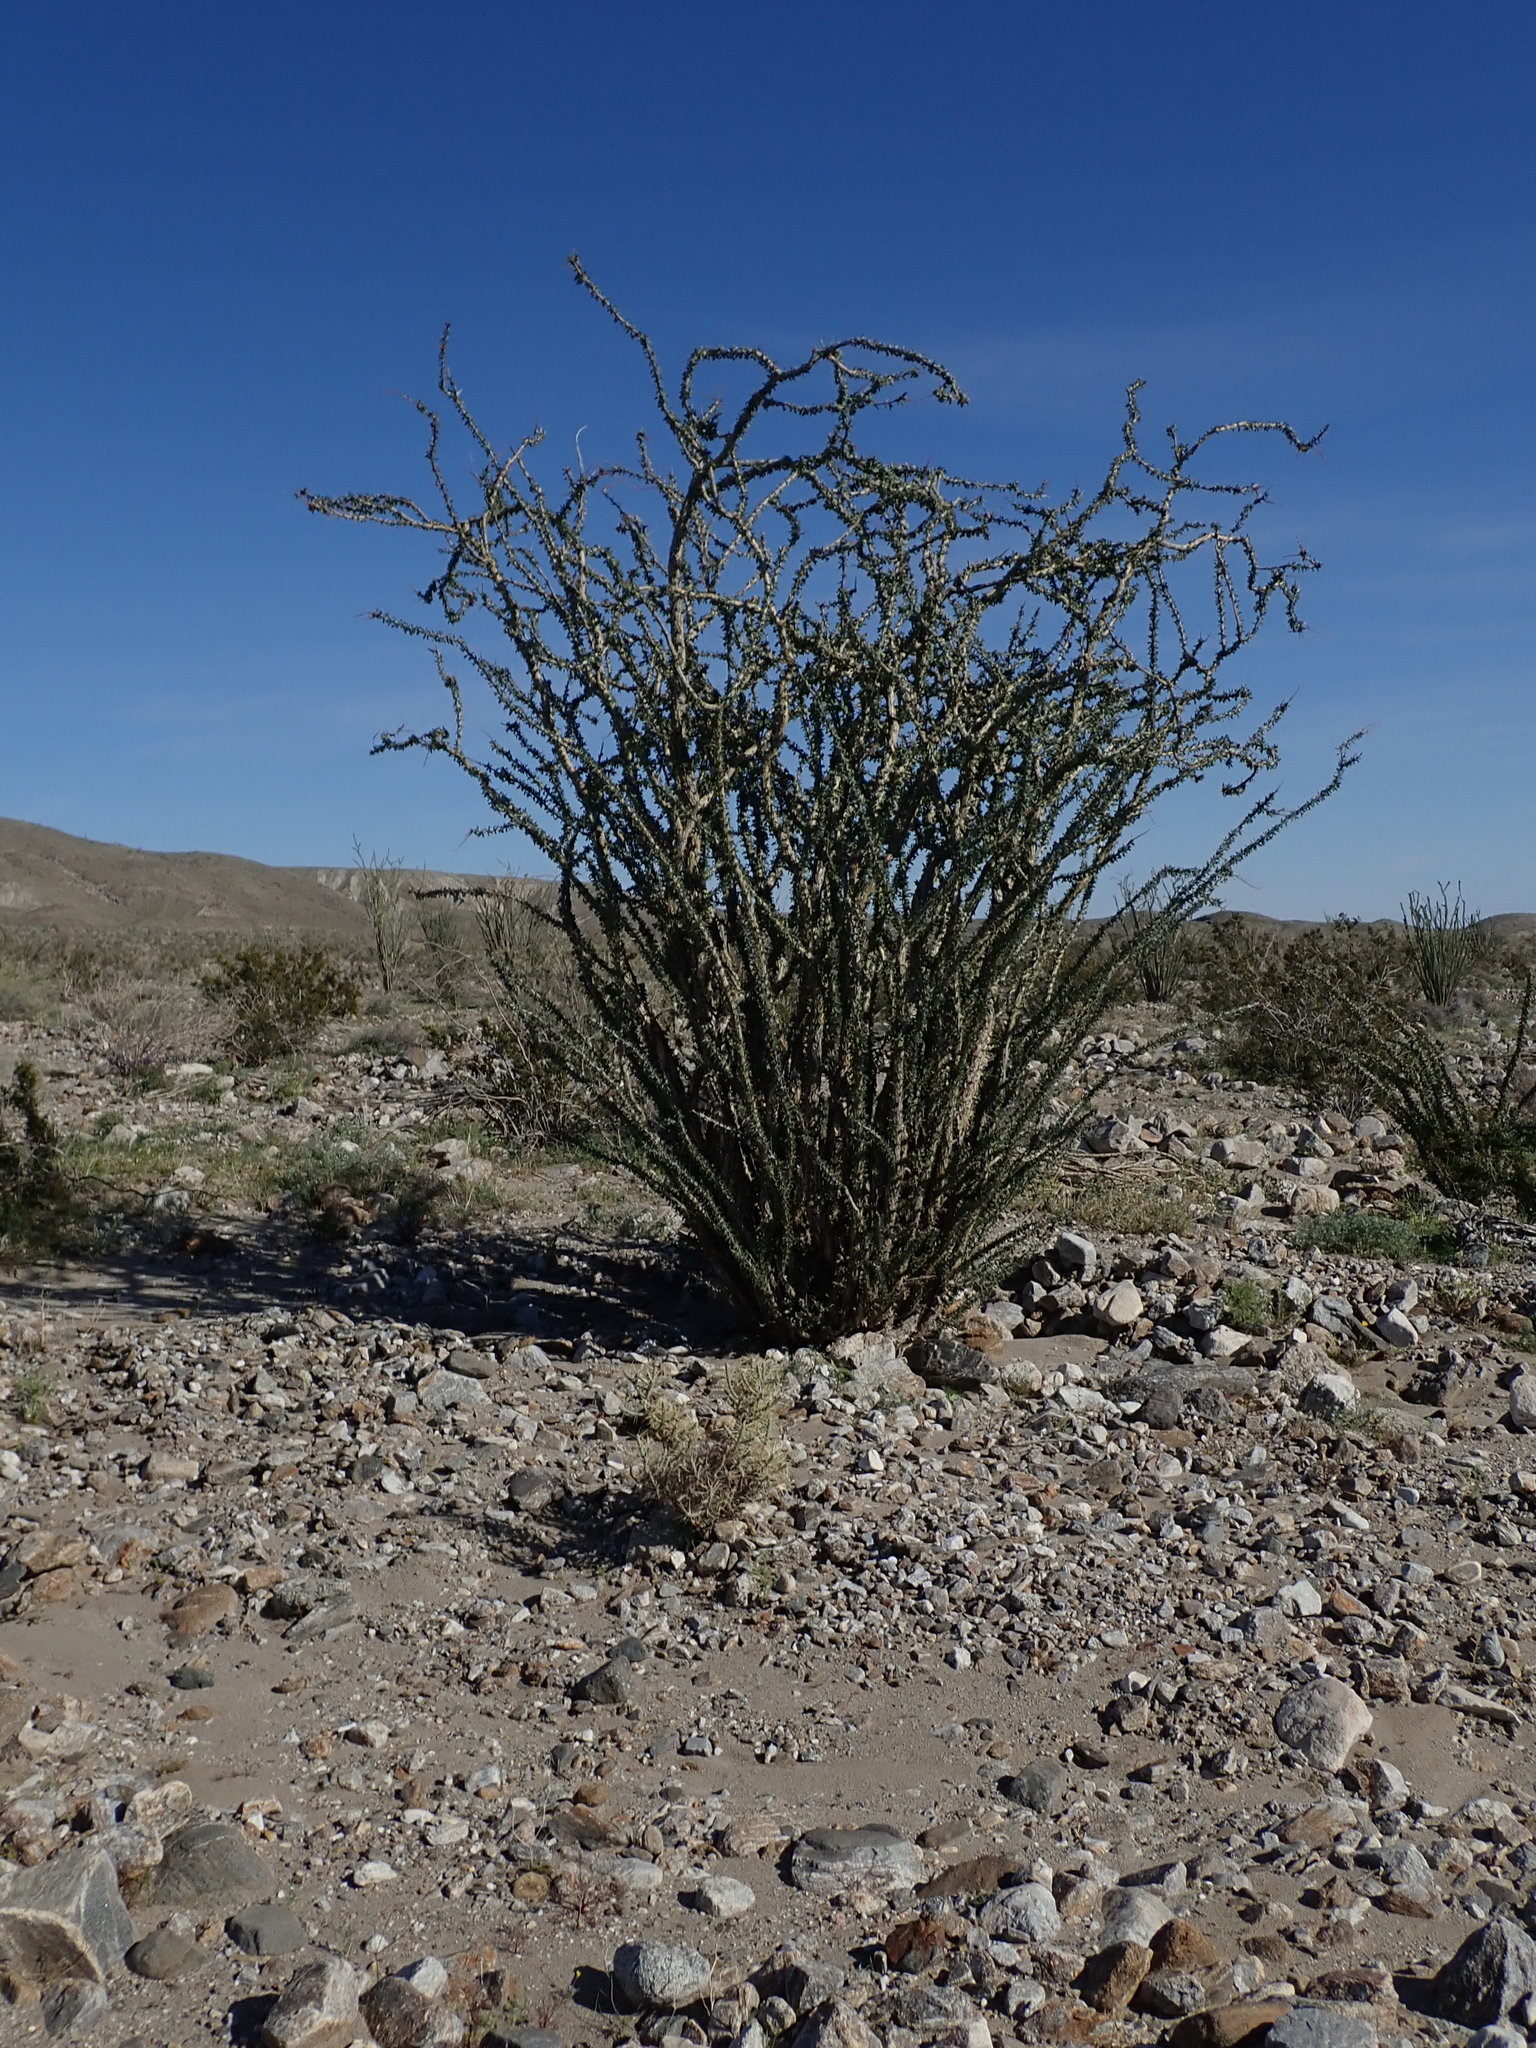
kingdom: Plantae
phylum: Tracheophyta
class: Magnoliopsida
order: Ericales
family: Fouquieriaceae
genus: Fouquieria
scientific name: Fouquieria splendens
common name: Vine-cactus
